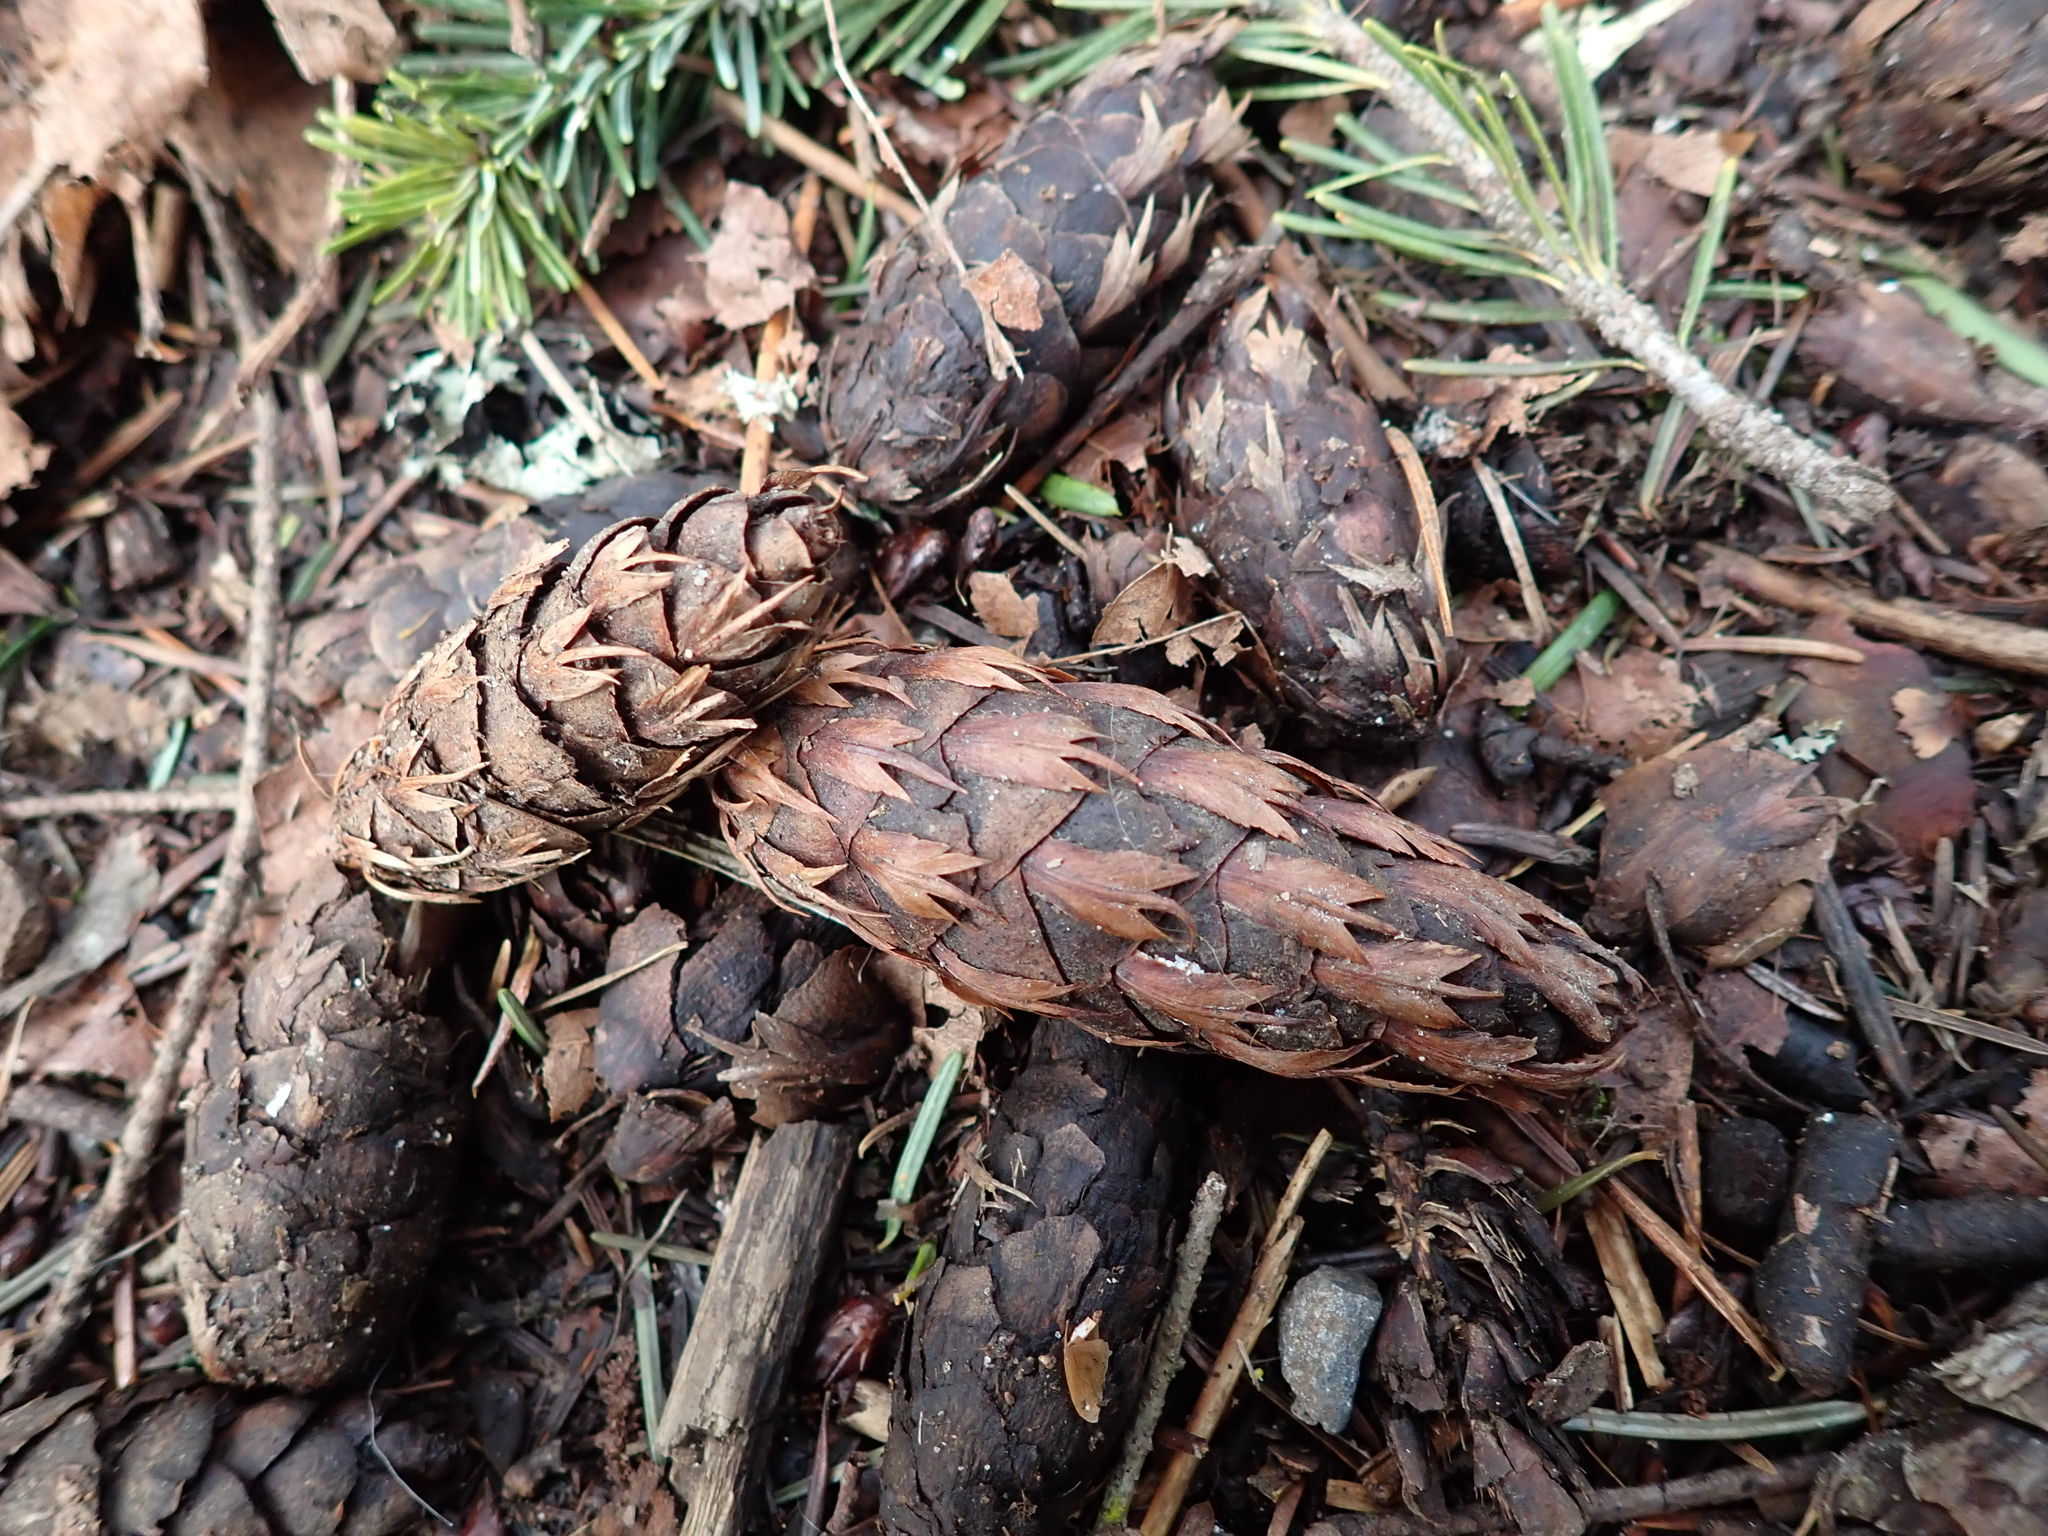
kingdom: Plantae
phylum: Tracheophyta
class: Pinopsida
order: Pinales
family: Pinaceae
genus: Pseudotsuga
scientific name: Pseudotsuga menziesii
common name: Douglas fir
